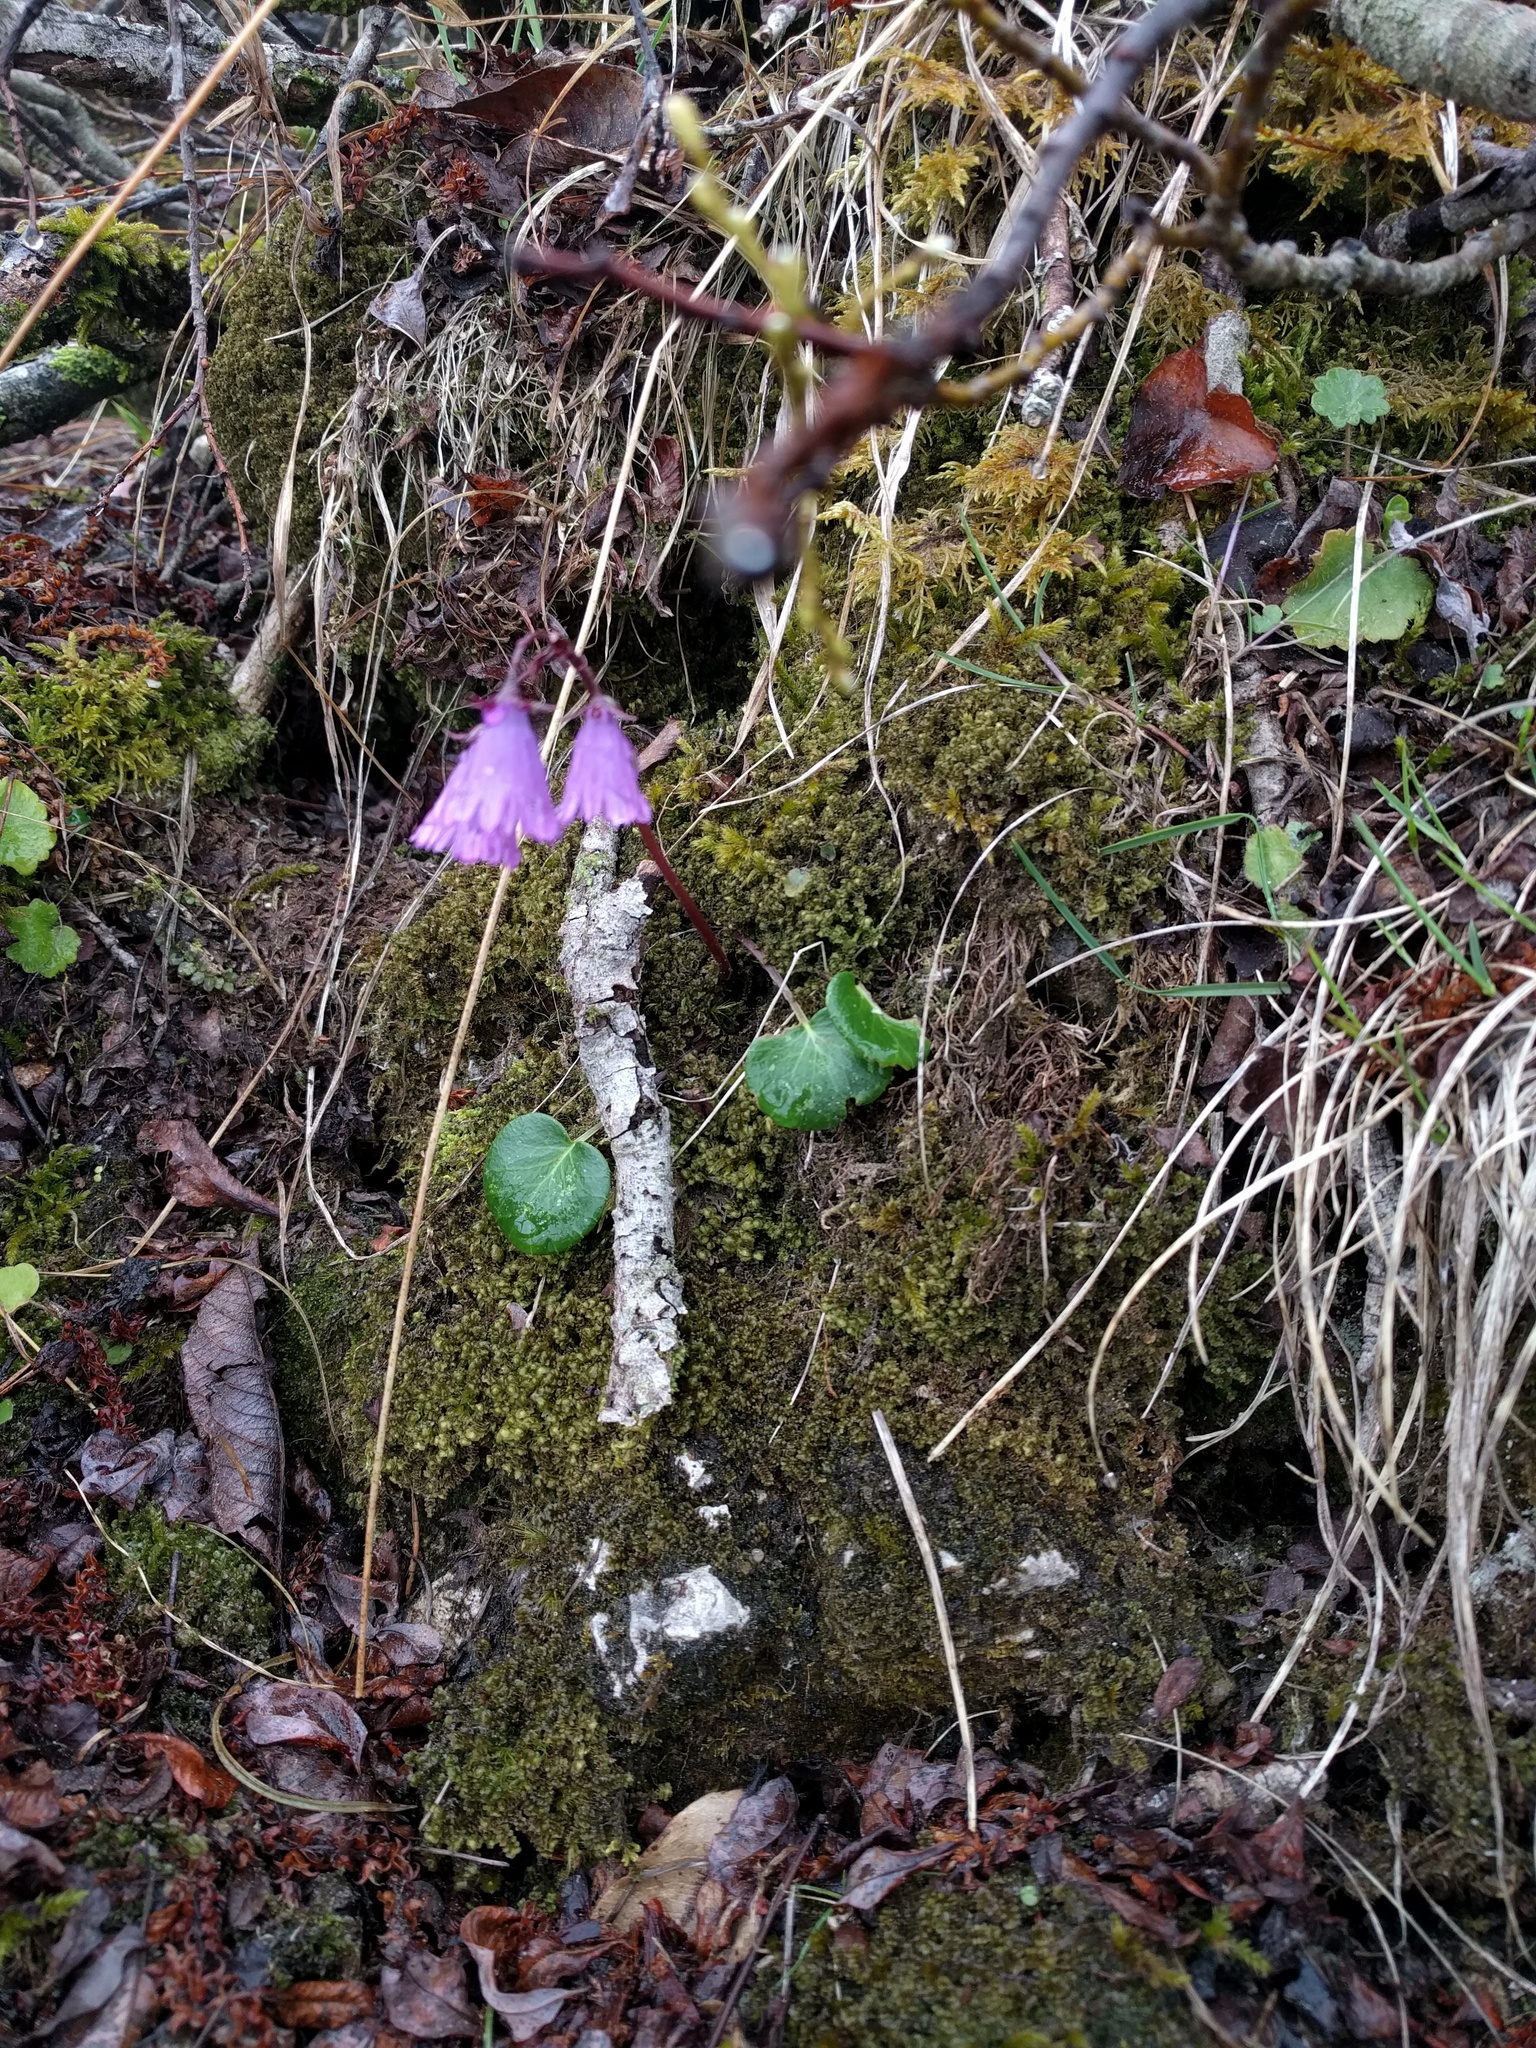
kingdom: Plantae
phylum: Tracheophyta
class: Magnoliopsida
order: Ericales
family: Primulaceae
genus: Soldanella
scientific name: Soldanella alpina
